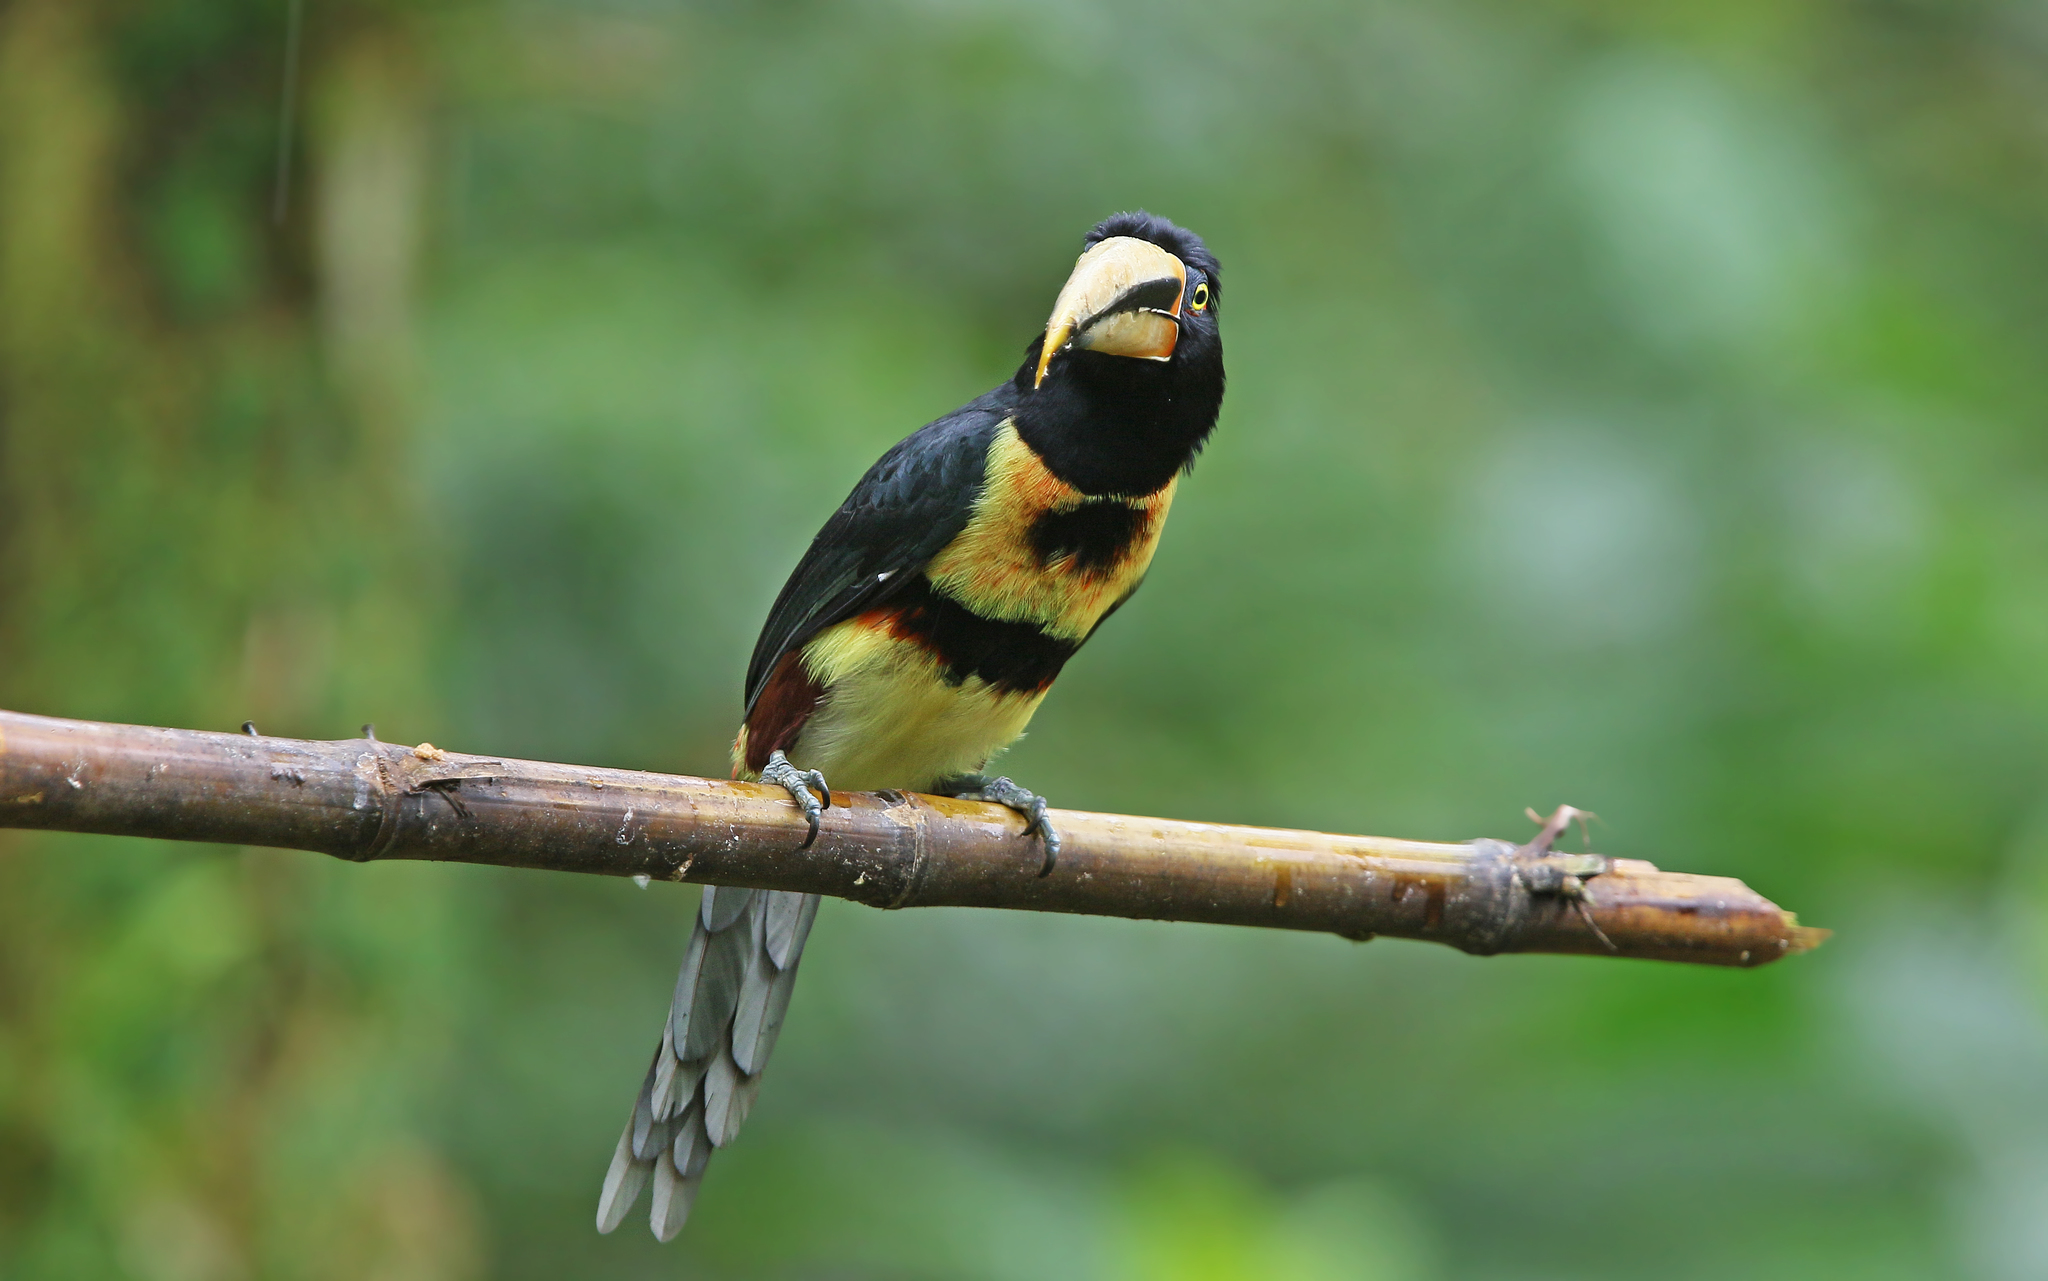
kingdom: Animalia
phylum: Chordata
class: Aves
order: Piciformes
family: Ramphastidae
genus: Pteroglossus
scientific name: Pteroglossus torquatus
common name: Collared aracari
